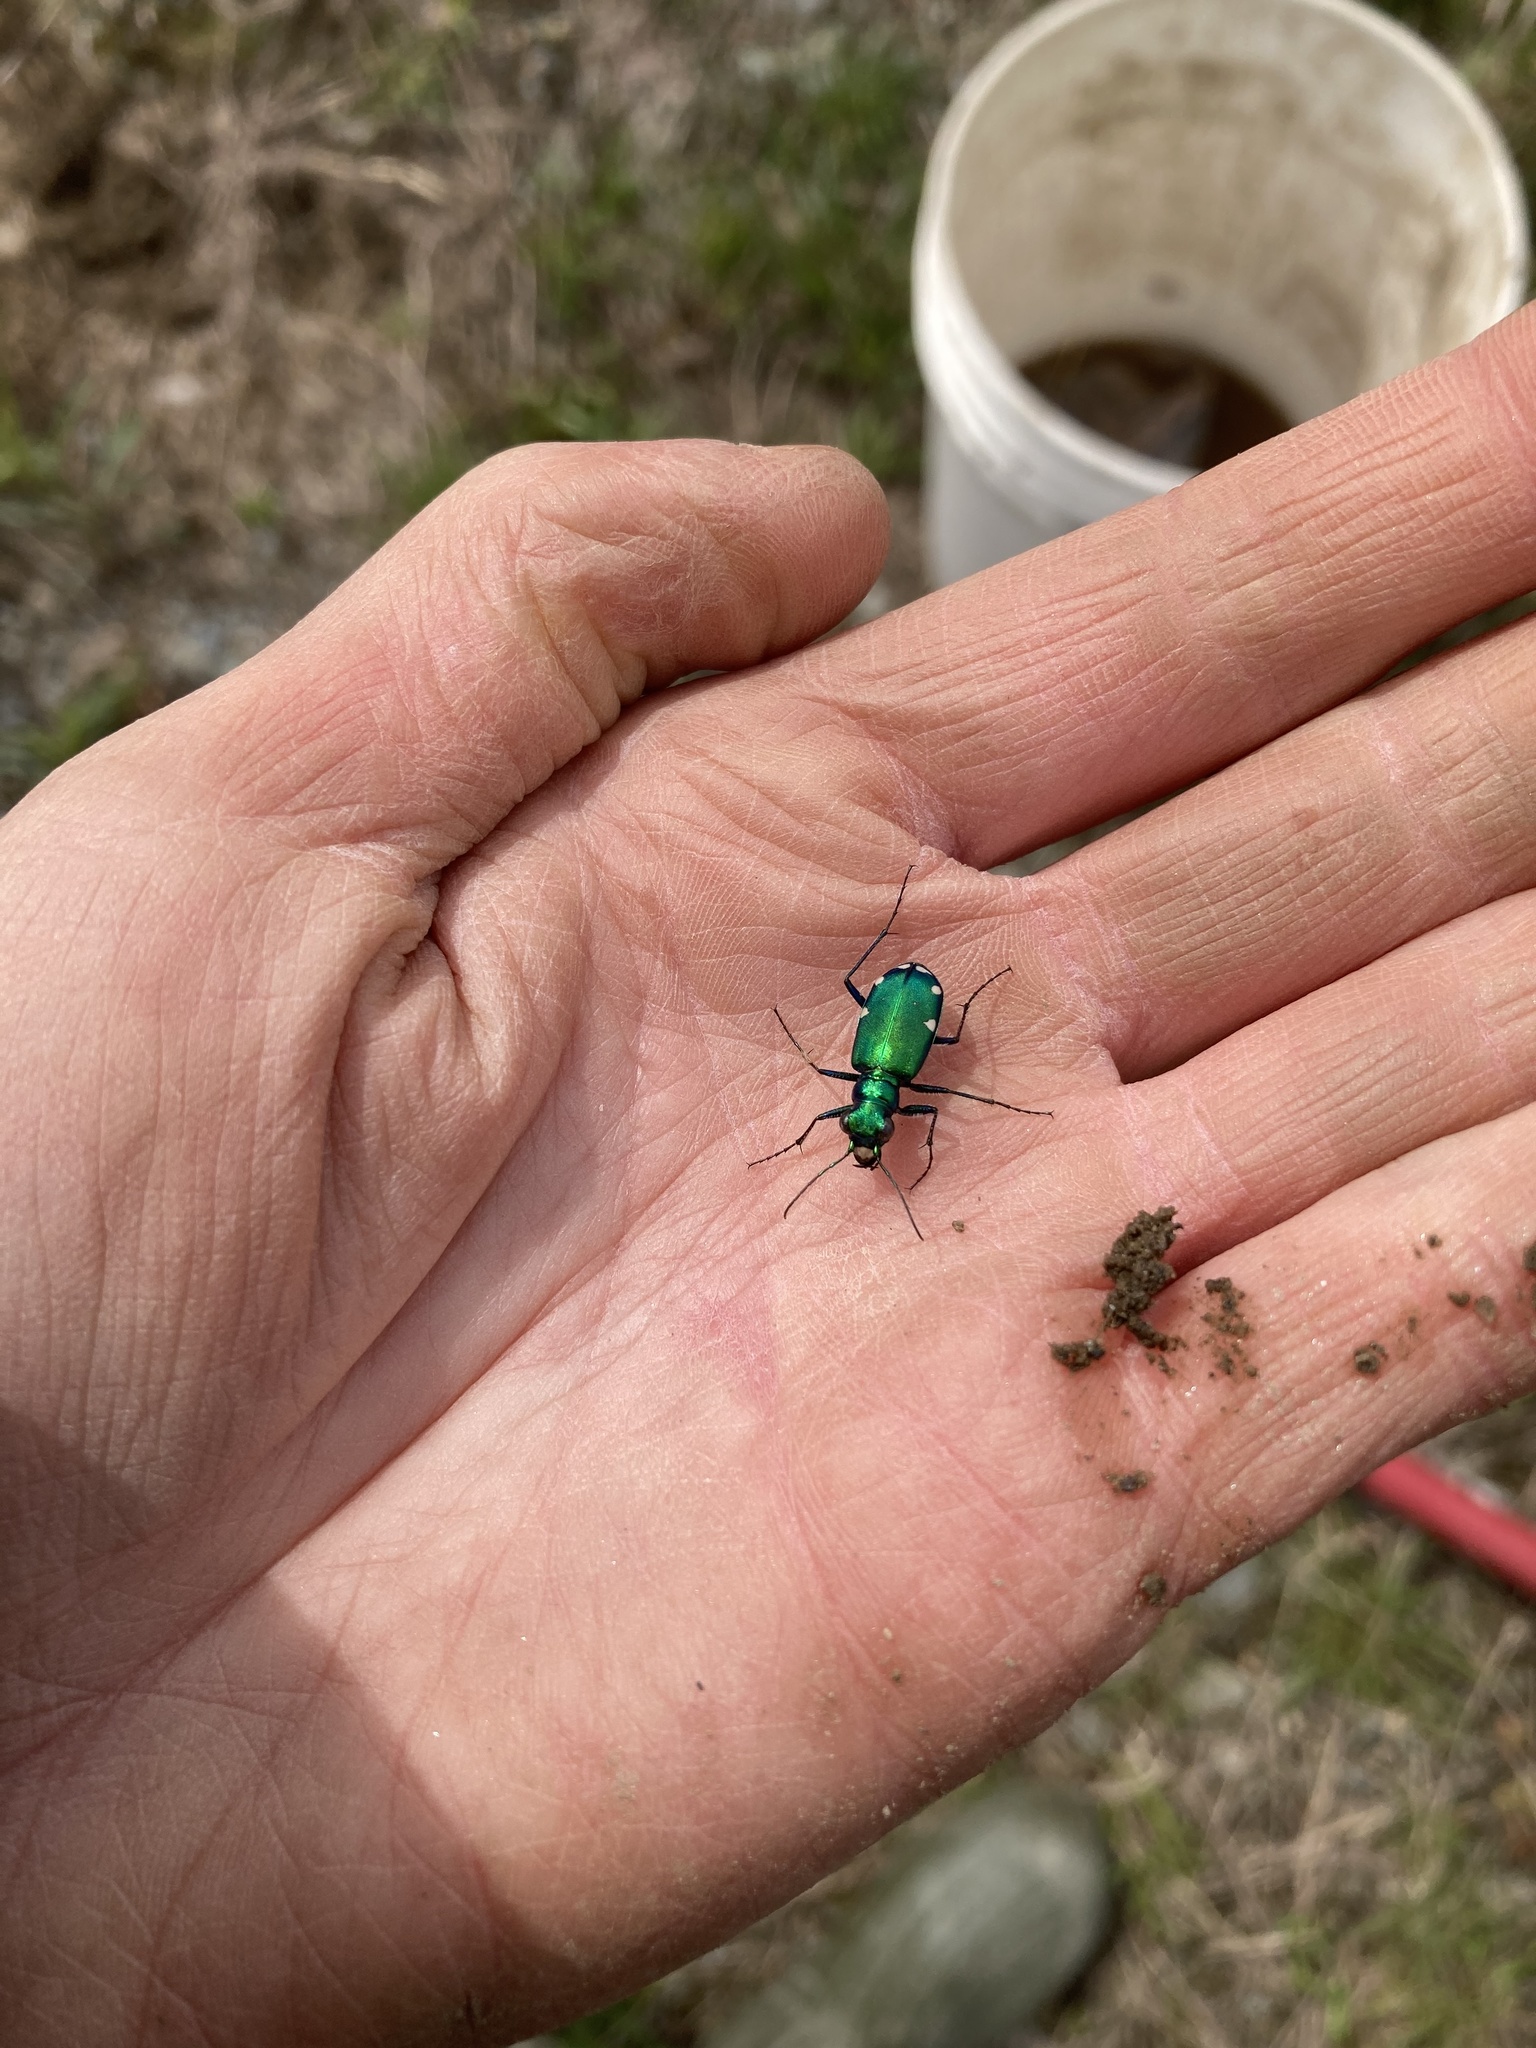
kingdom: Animalia
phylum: Arthropoda
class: Insecta
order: Coleoptera
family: Carabidae
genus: Cicindela
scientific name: Cicindela sexguttata
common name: Six-spotted tiger beetle
